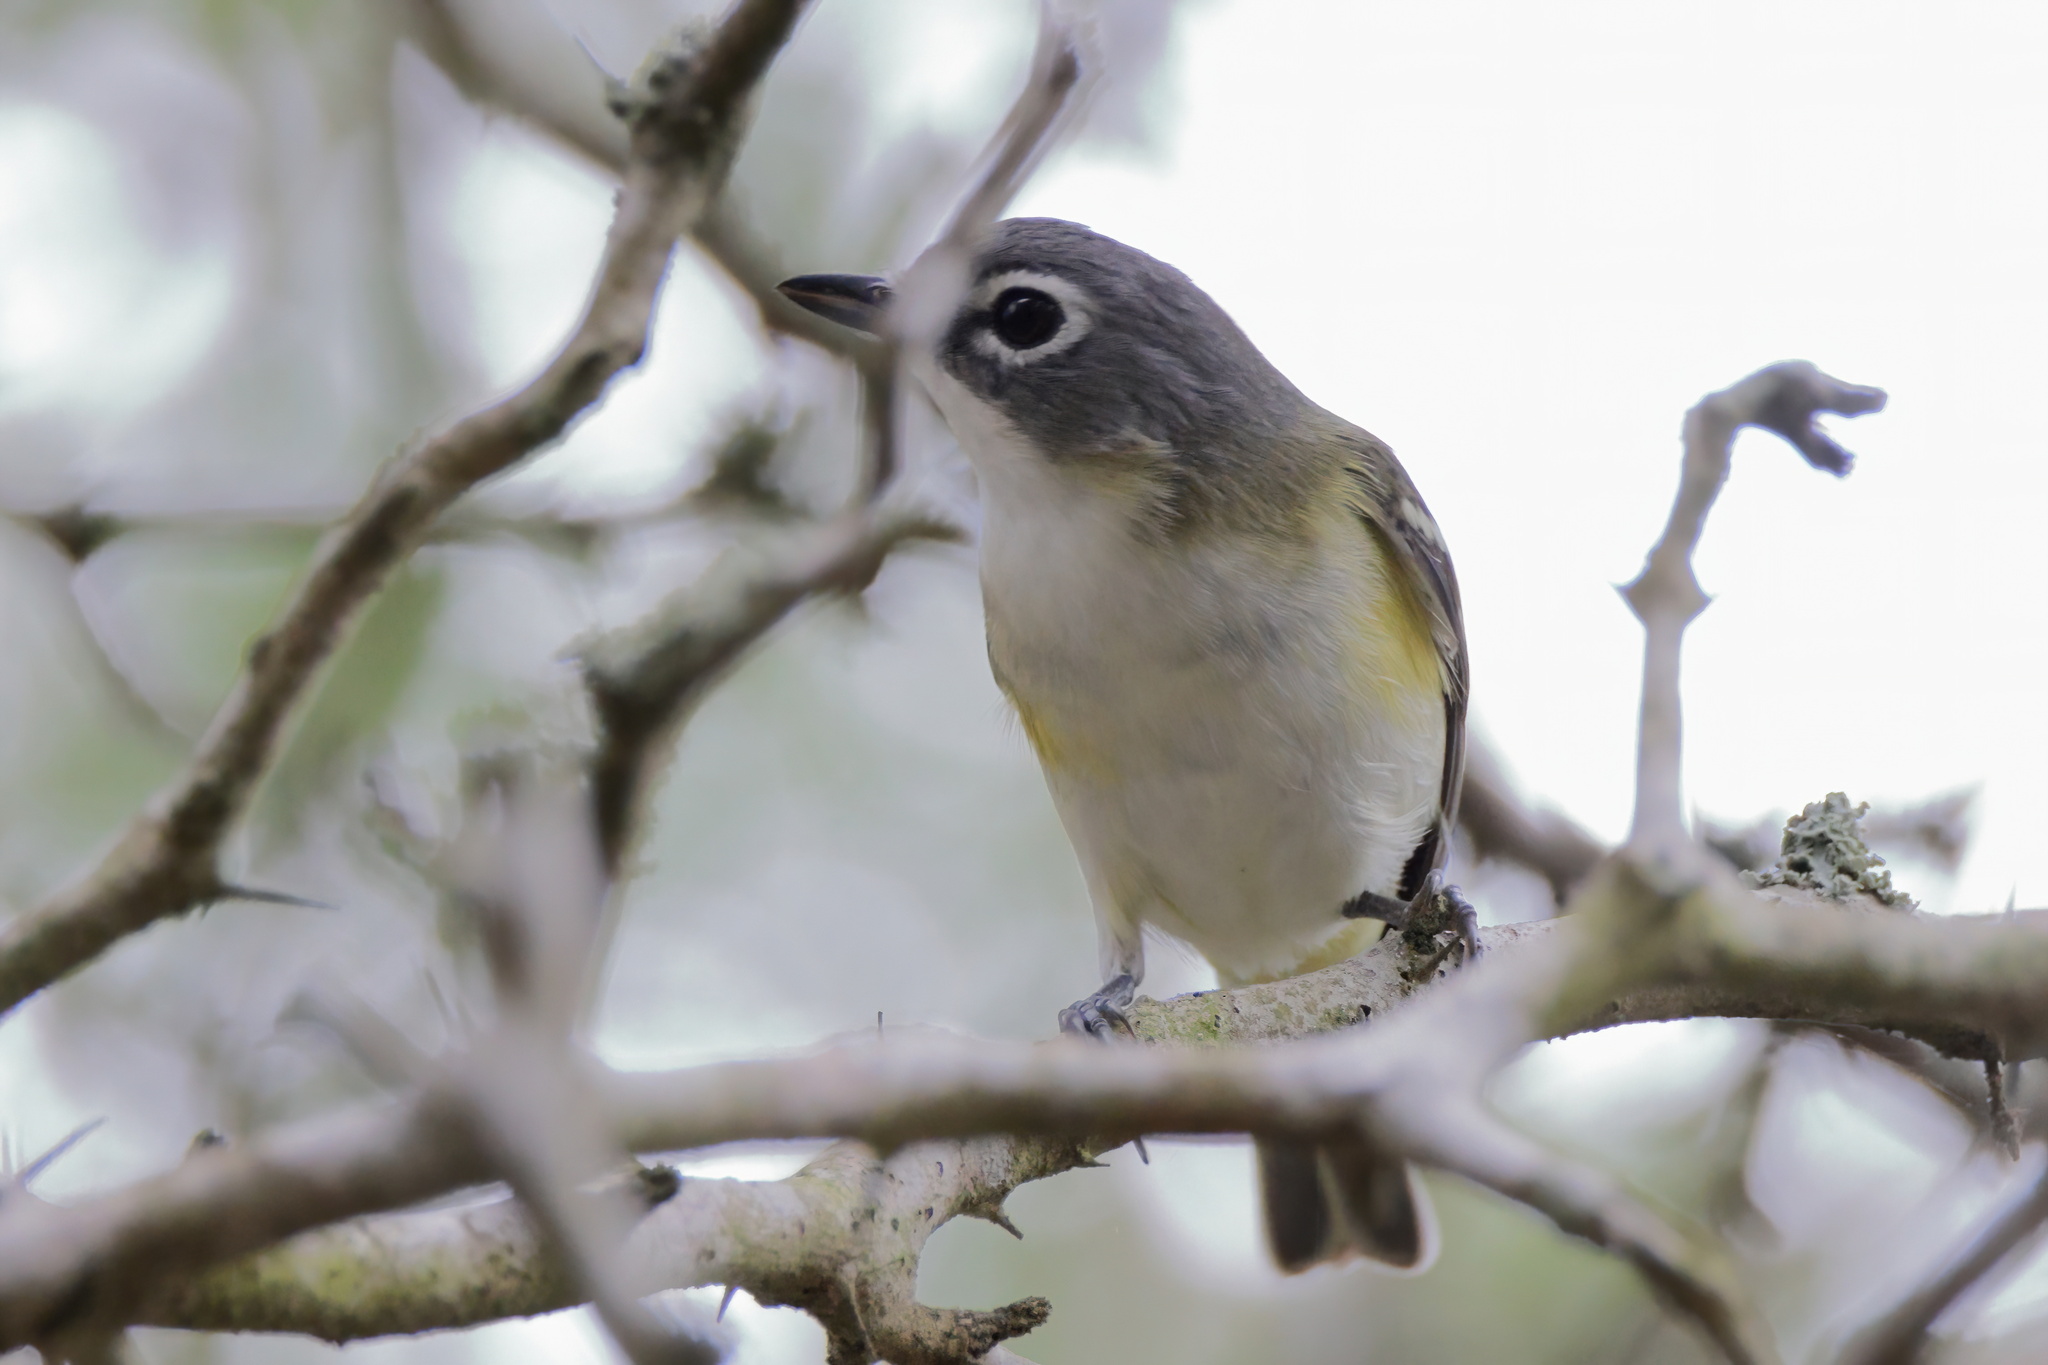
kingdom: Animalia
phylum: Chordata
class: Aves
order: Passeriformes
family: Vireonidae
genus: Vireo
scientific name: Vireo solitarius
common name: Blue-headed vireo
